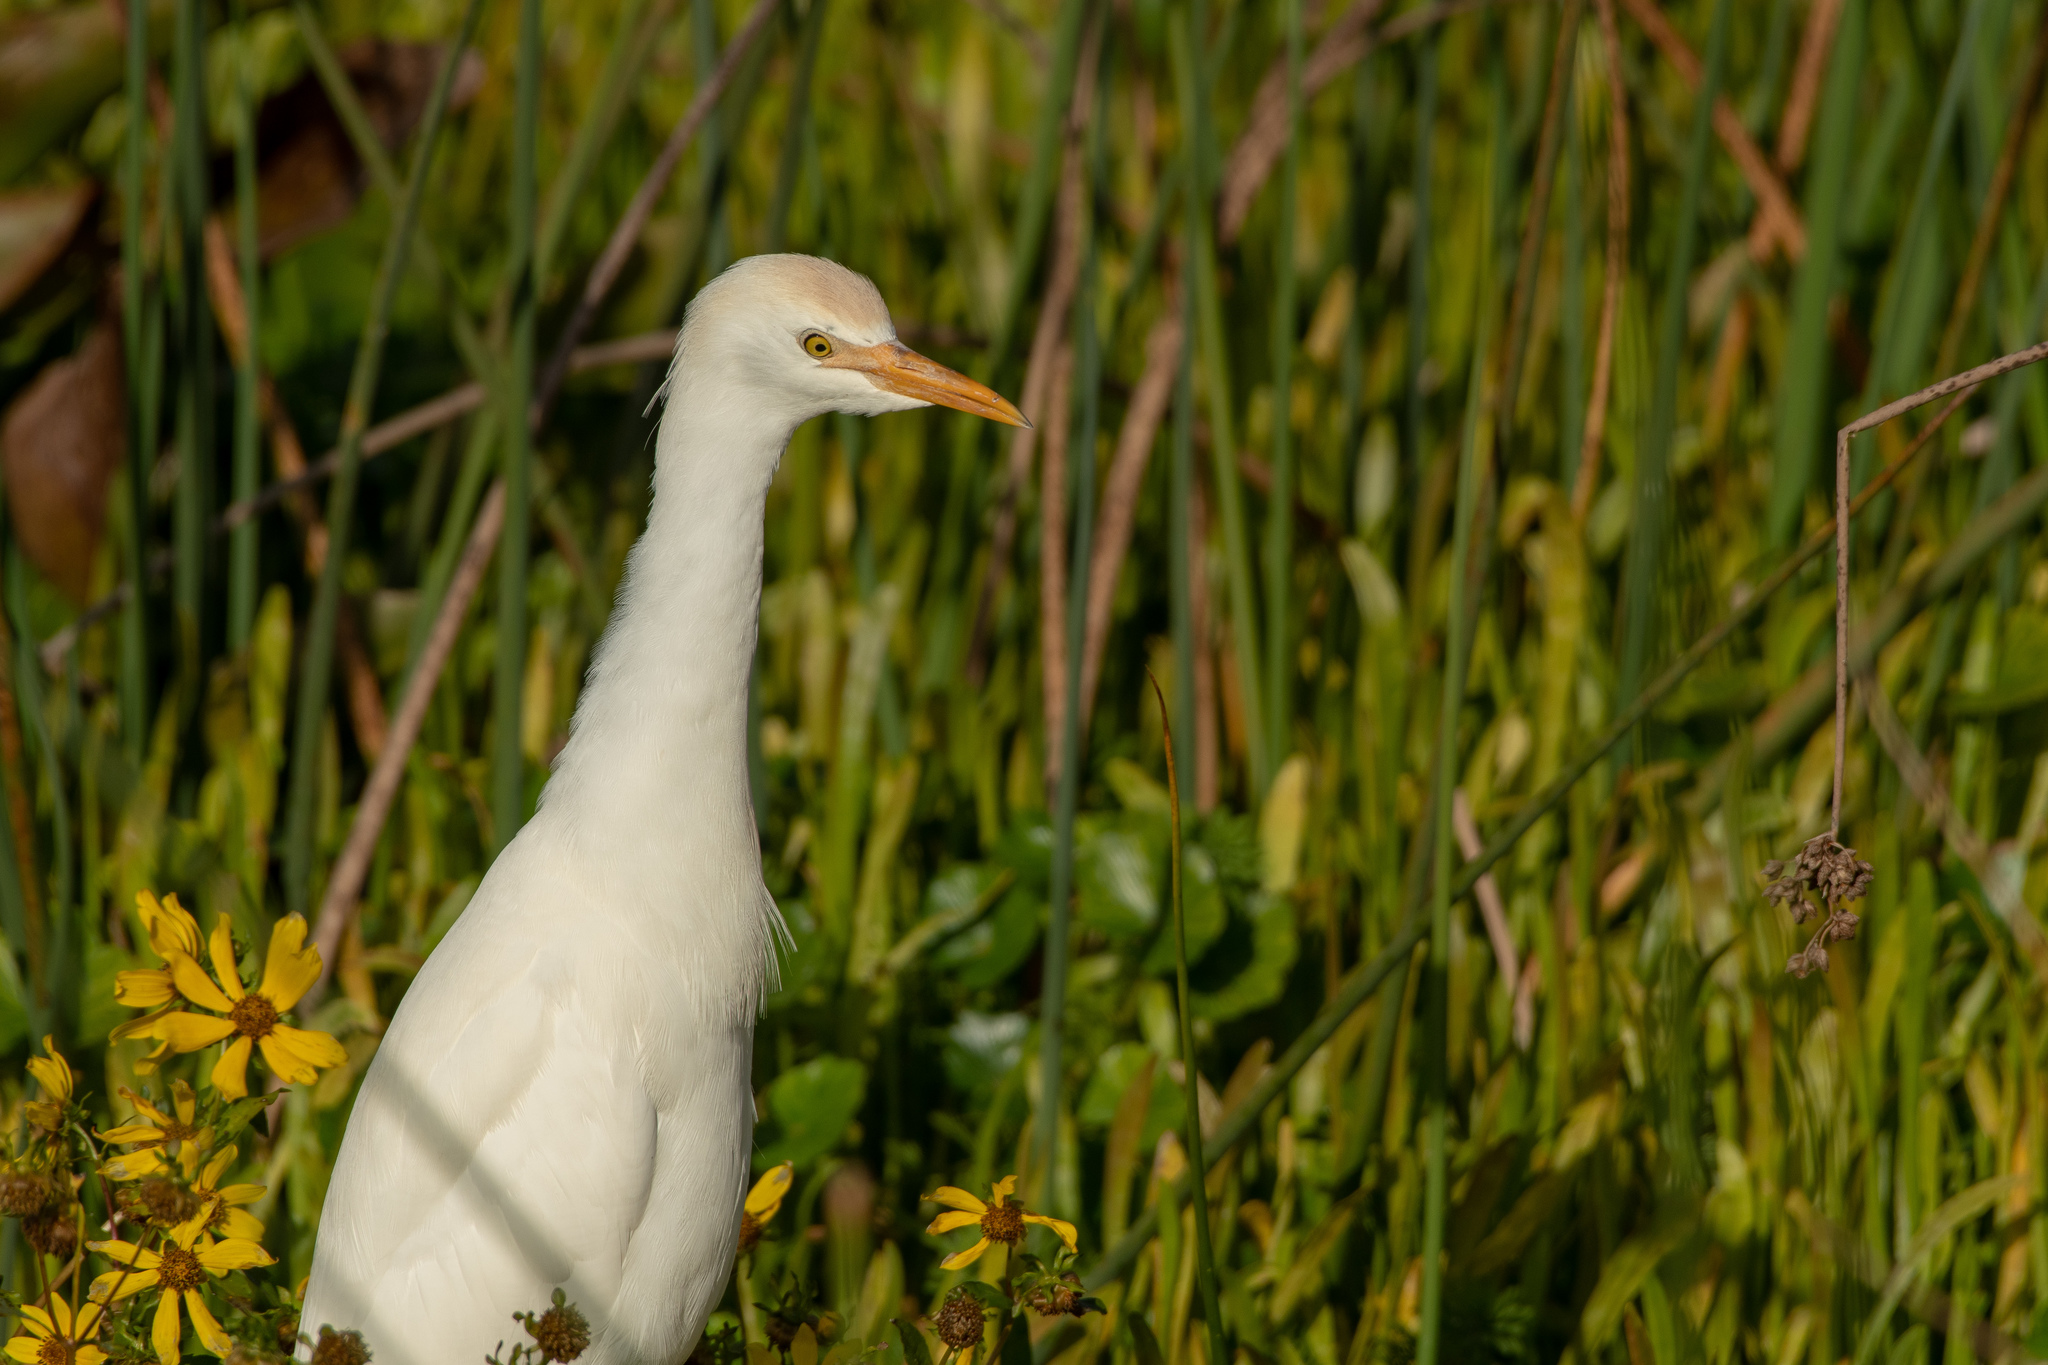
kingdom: Animalia
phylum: Chordata
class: Aves
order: Pelecaniformes
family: Ardeidae
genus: Bubulcus
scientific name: Bubulcus ibis
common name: Cattle egret
